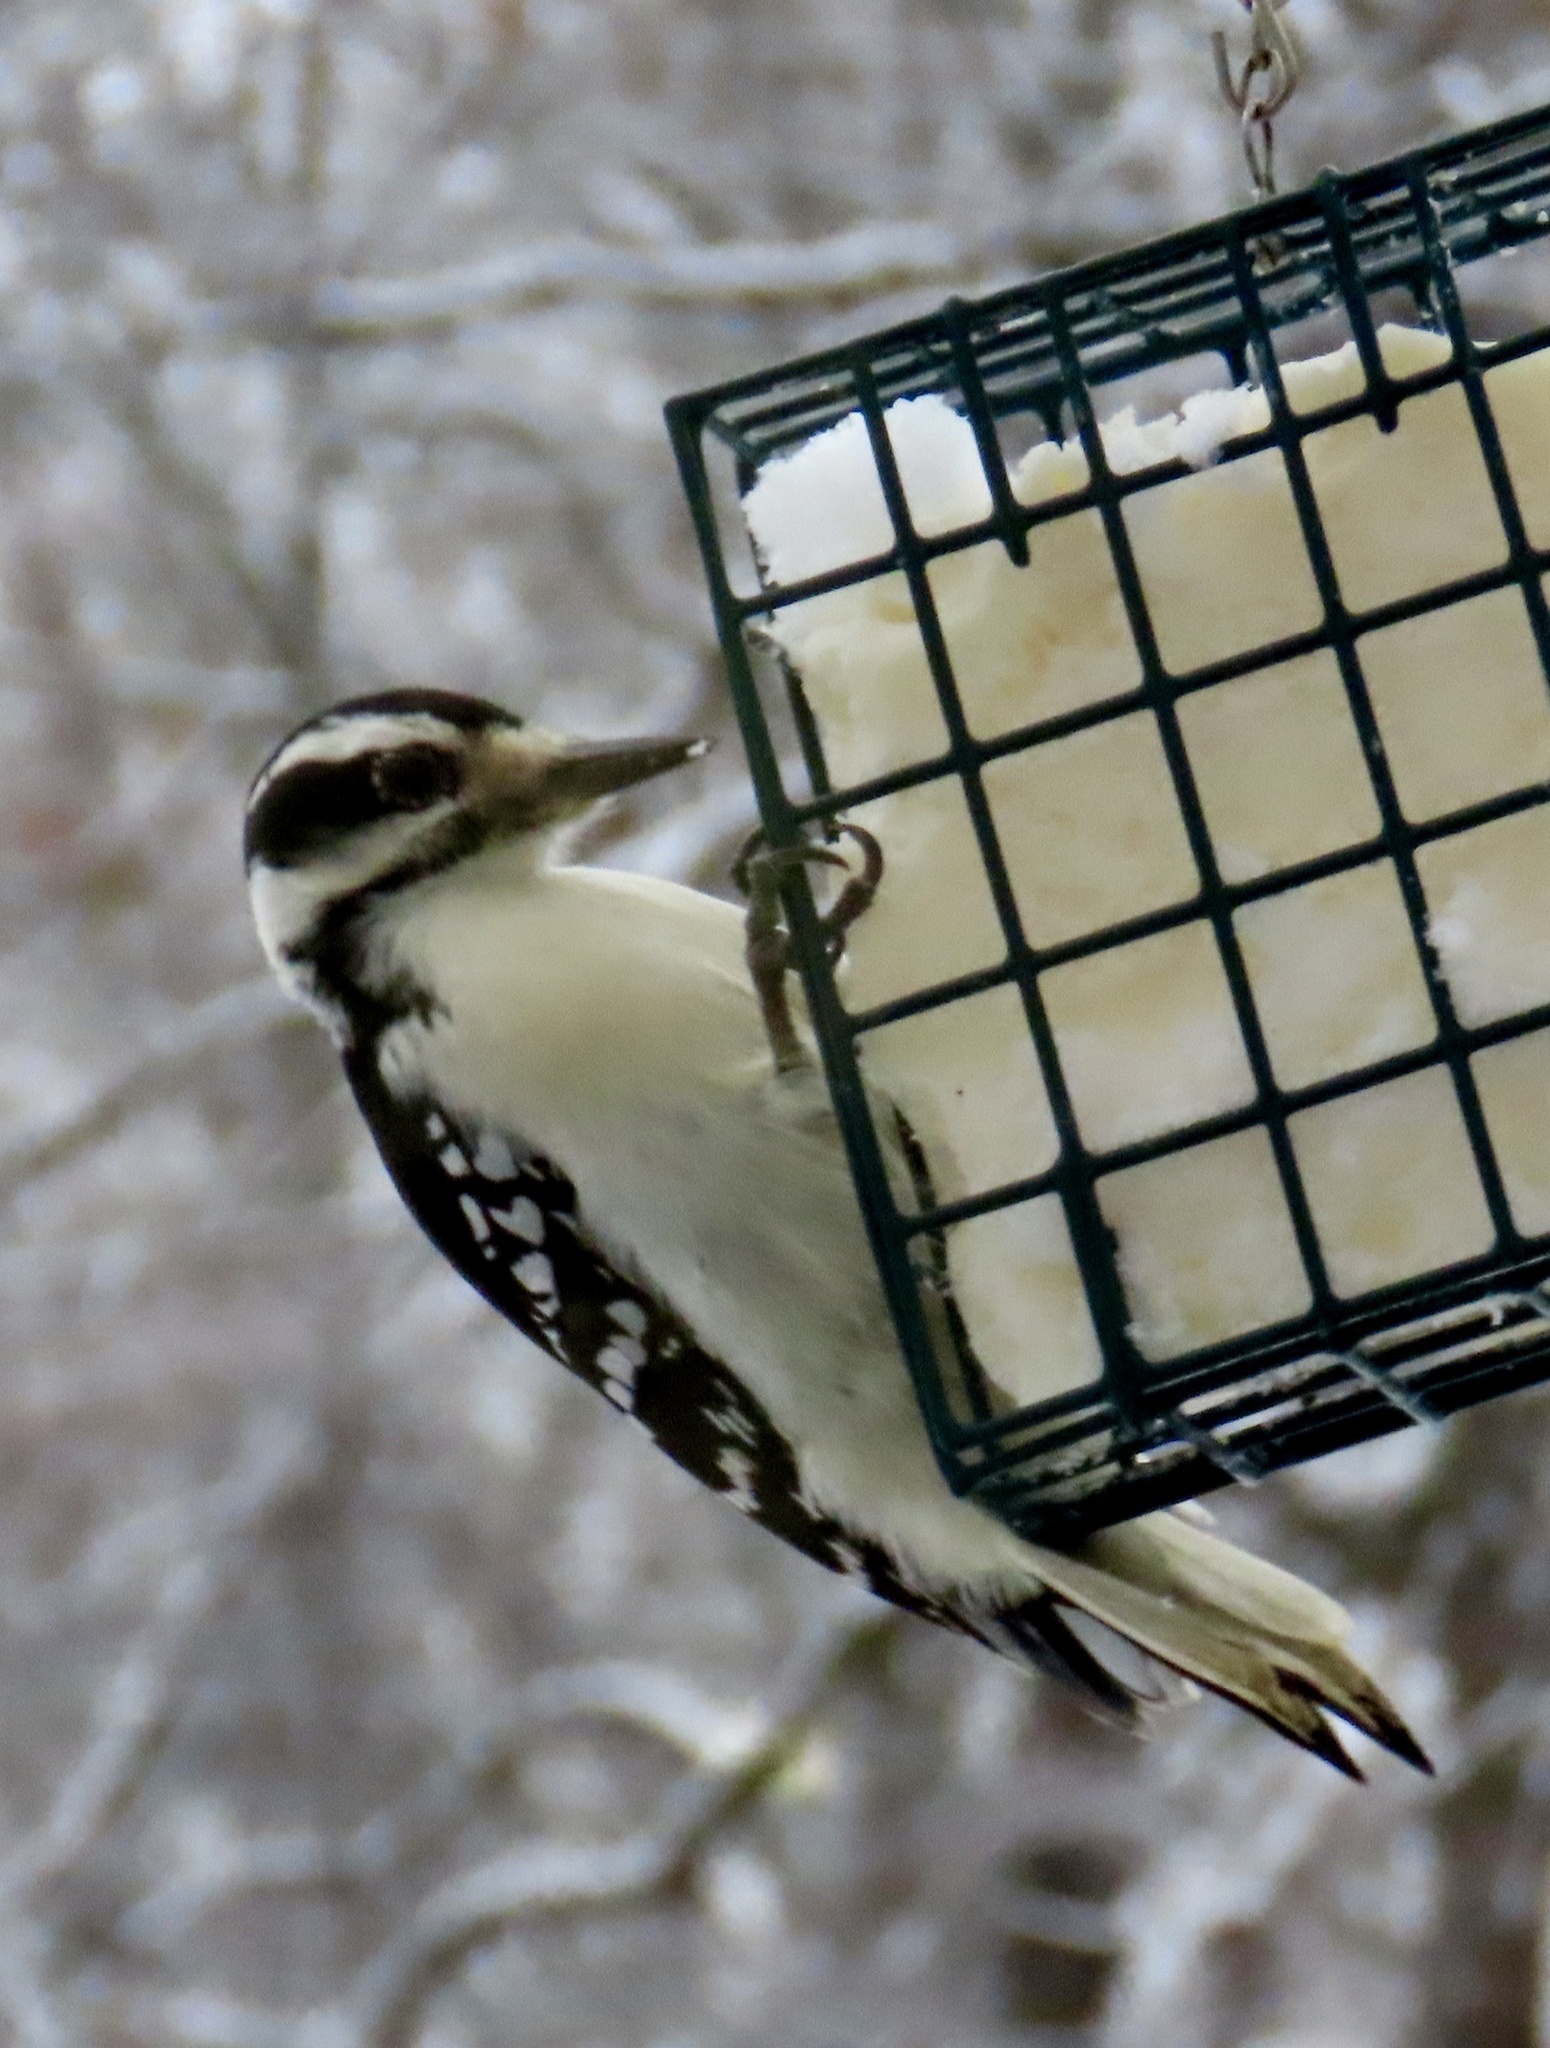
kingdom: Animalia
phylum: Chordata
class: Aves
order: Piciformes
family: Picidae
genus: Leuconotopicus
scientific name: Leuconotopicus villosus
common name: Hairy woodpecker
